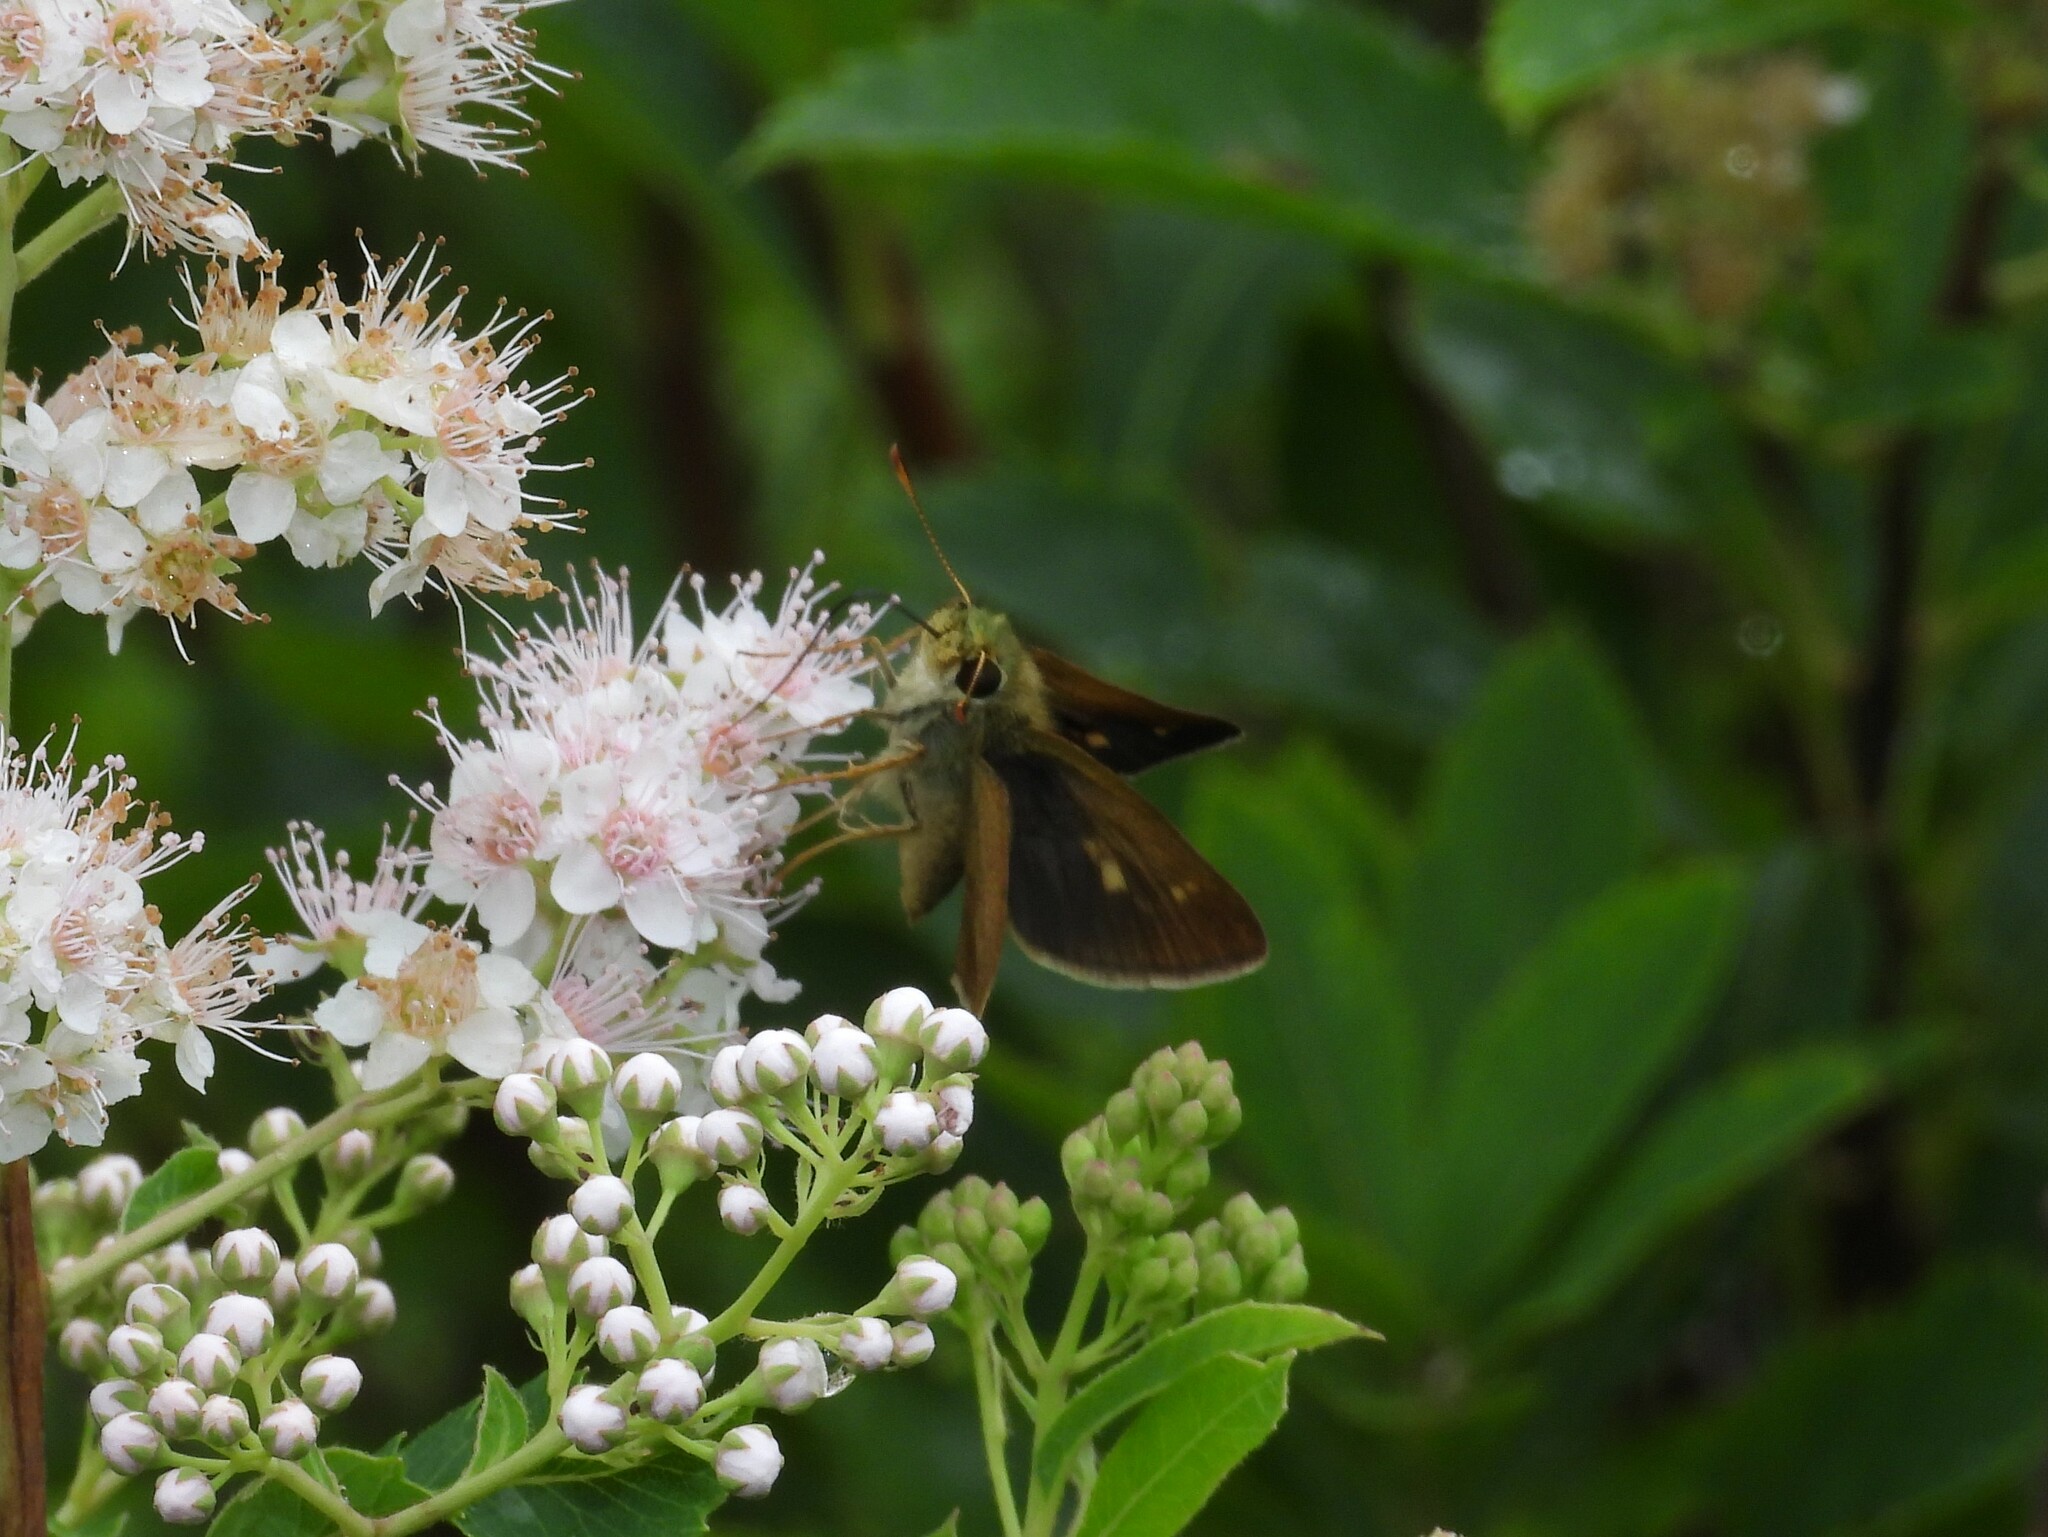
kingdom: Animalia
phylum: Arthropoda
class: Insecta
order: Lepidoptera
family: Hesperiidae
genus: Polites
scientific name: Polites egeremet
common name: Northern broken-dash
